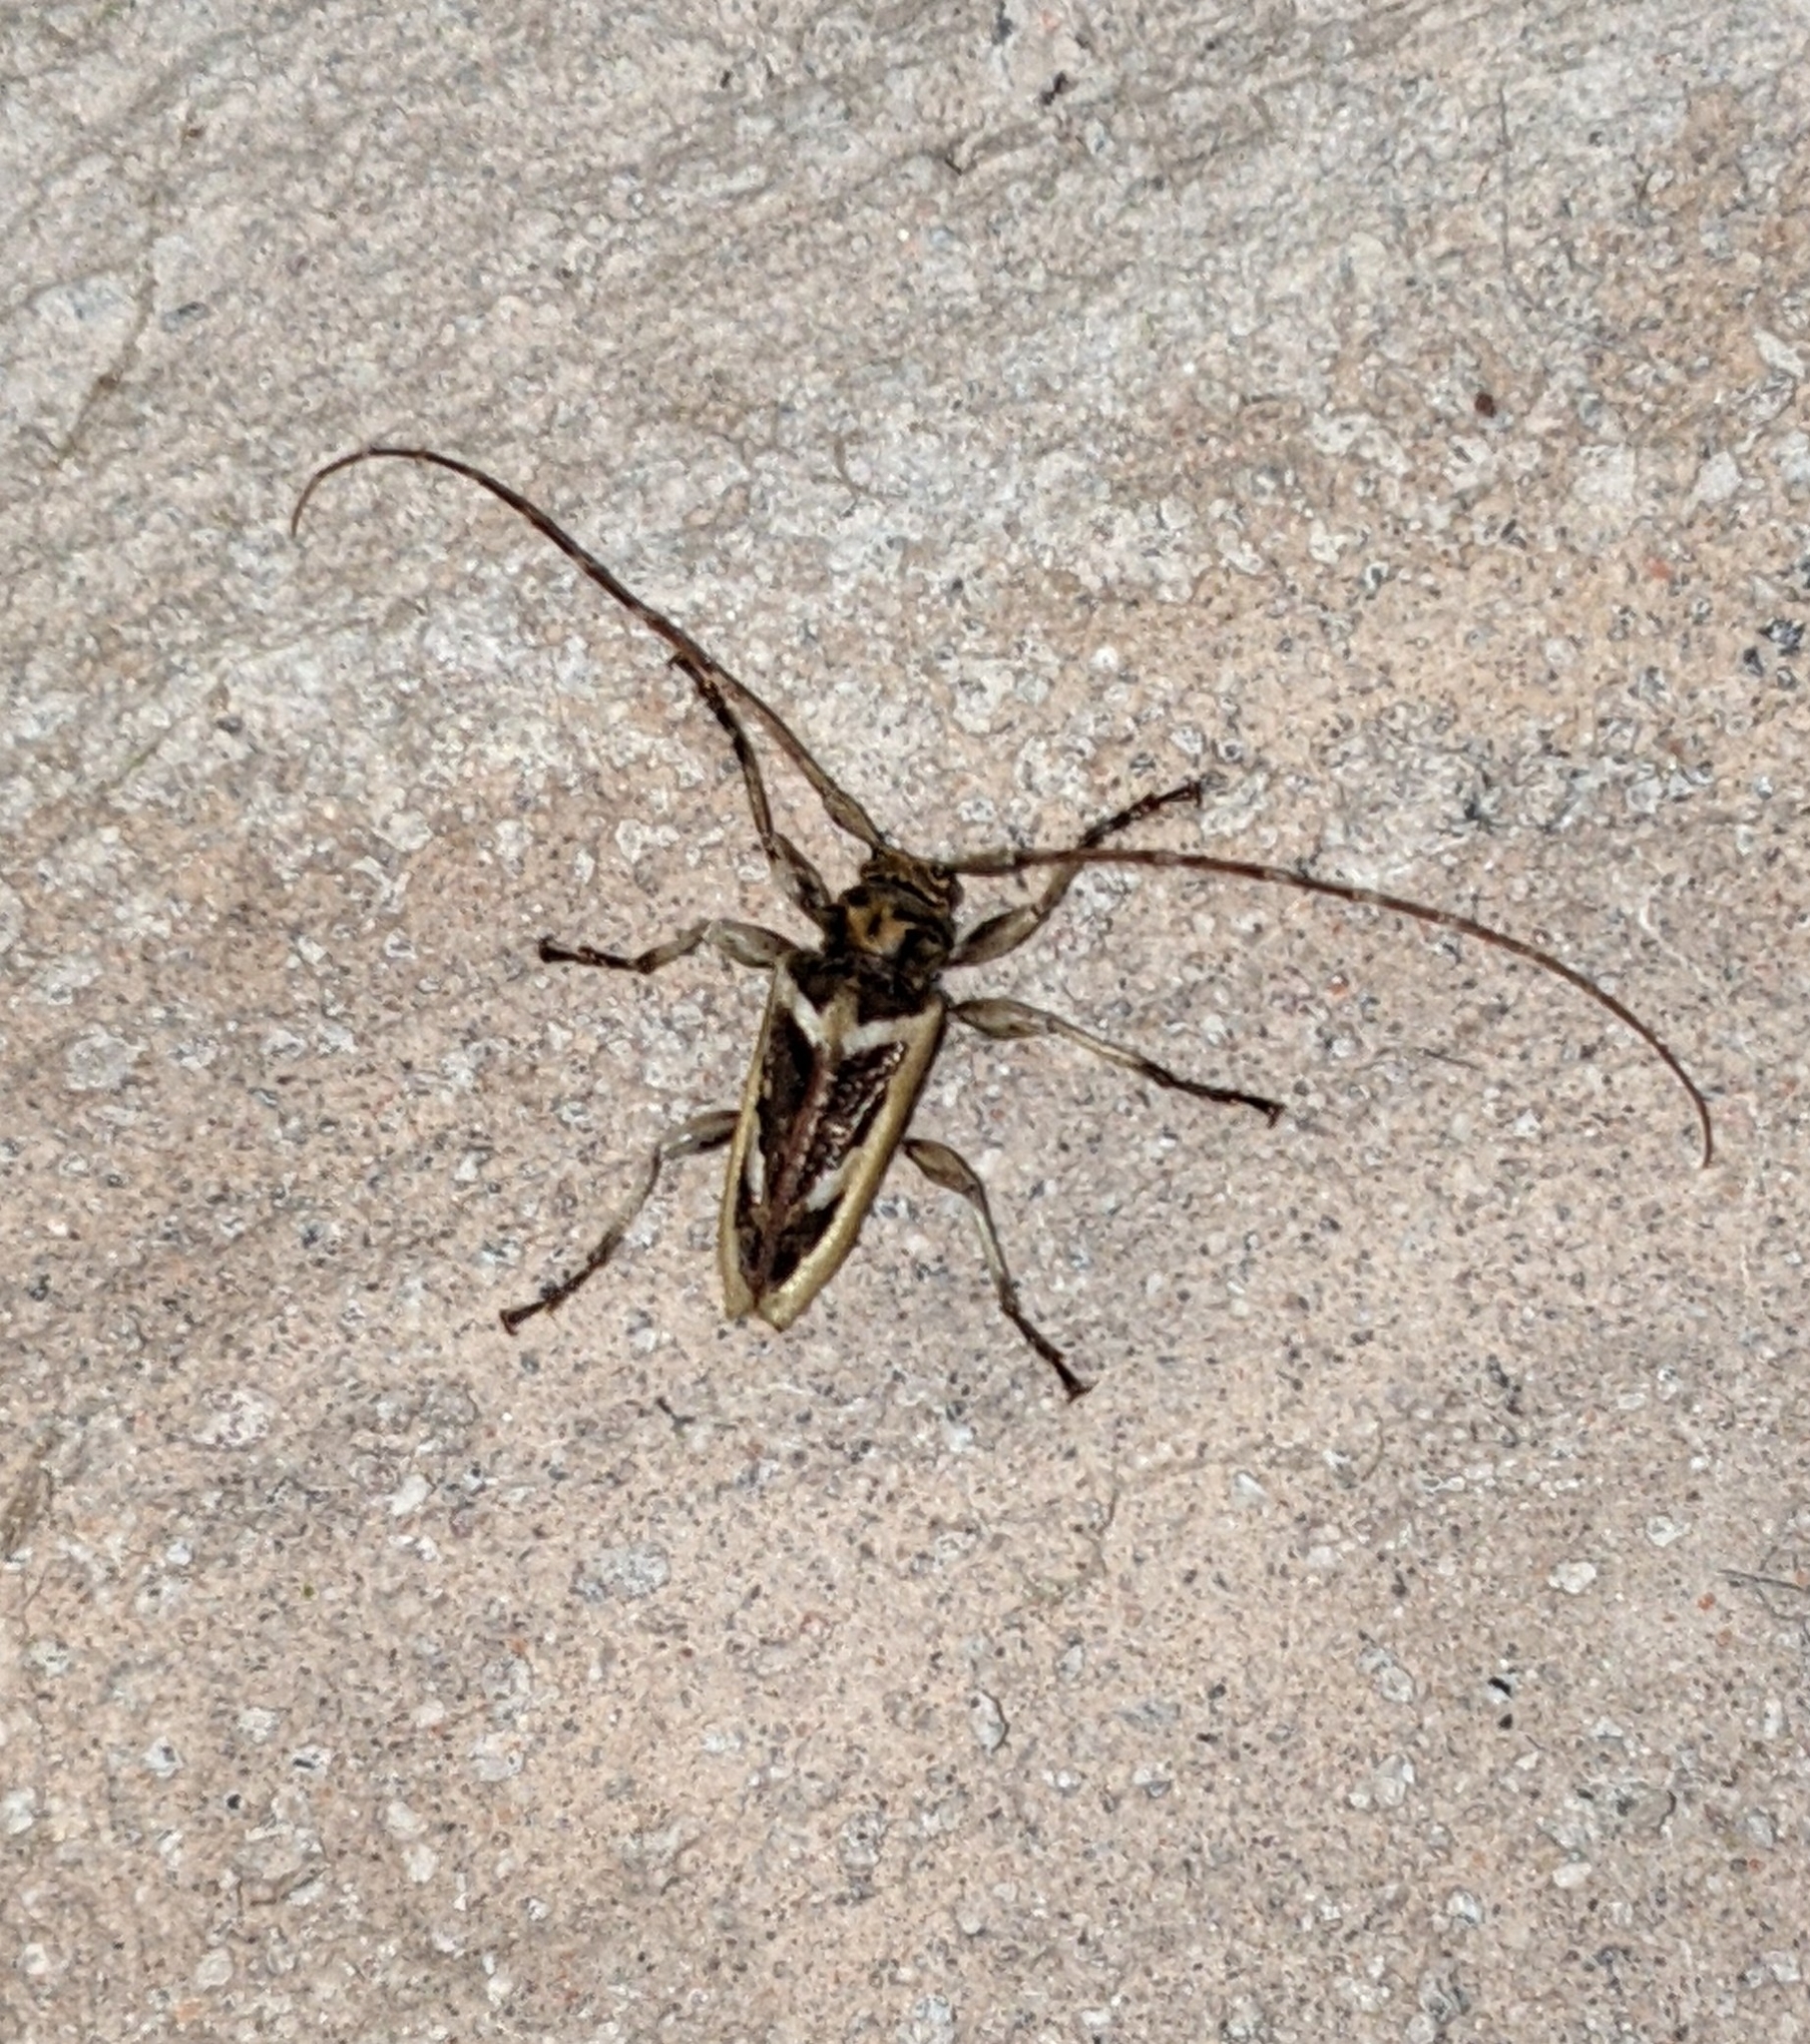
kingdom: Animalia
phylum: Arthropoda
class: Insecta
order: Coleoptera
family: Cerambycidae
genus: Oreodera
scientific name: Oreodera antonkozlovi
